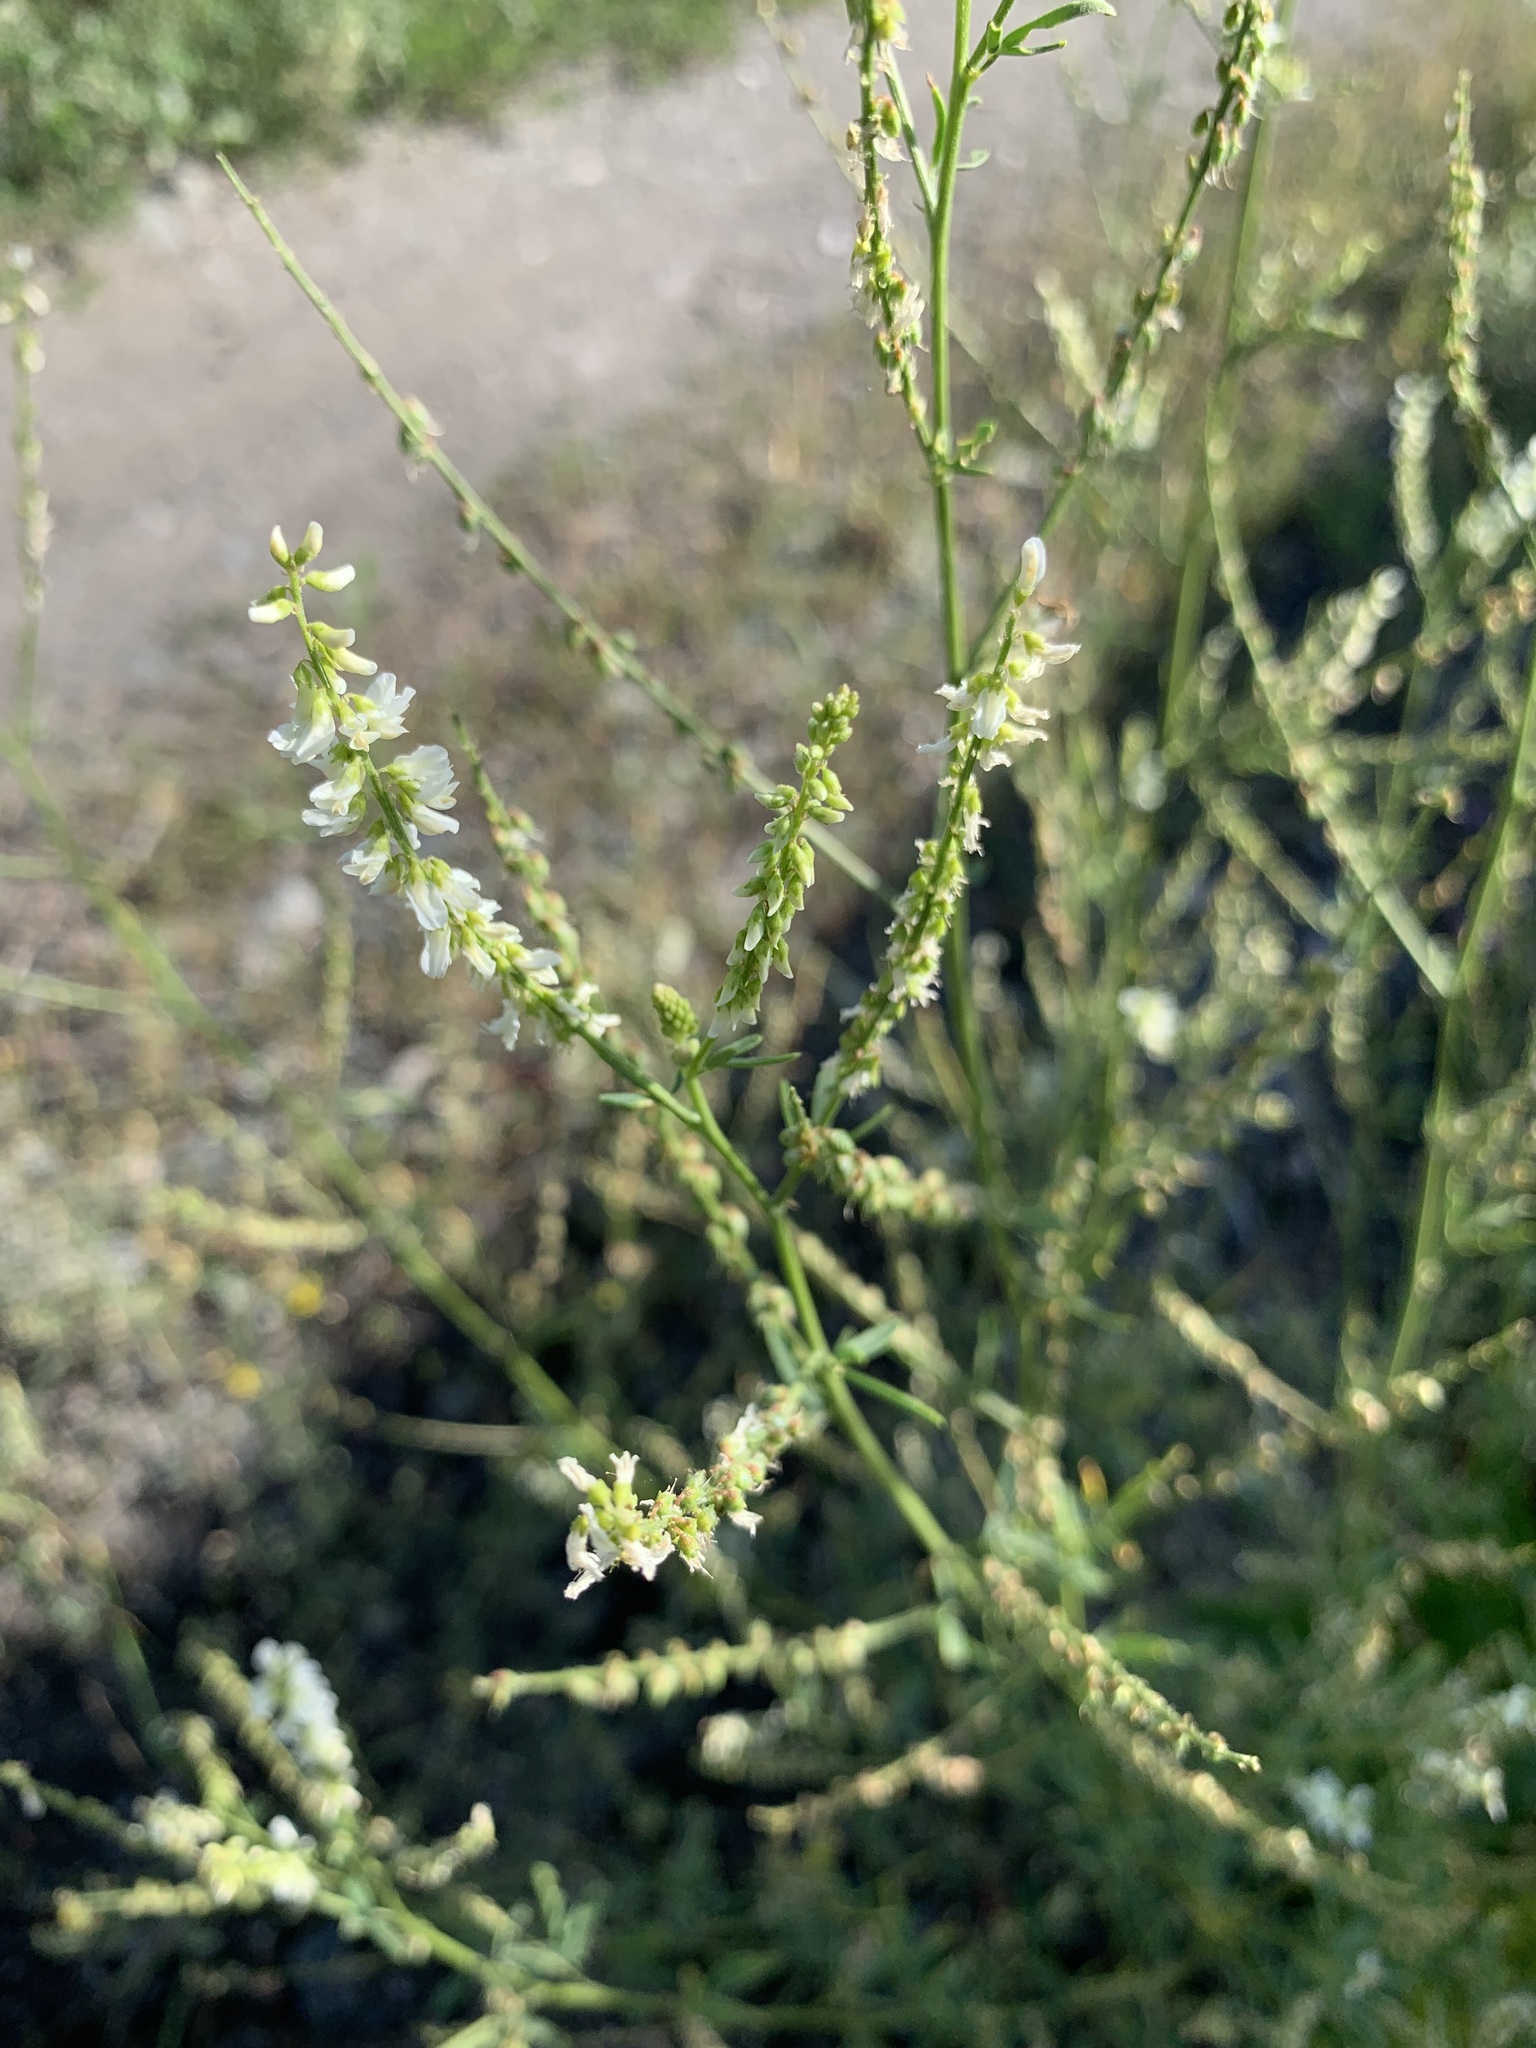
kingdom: Plantae
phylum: Tracheophyta
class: Magnoliopsida
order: Fabales
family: Fabaceae
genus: Melilotus
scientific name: Melilotus albus
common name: White melilot
